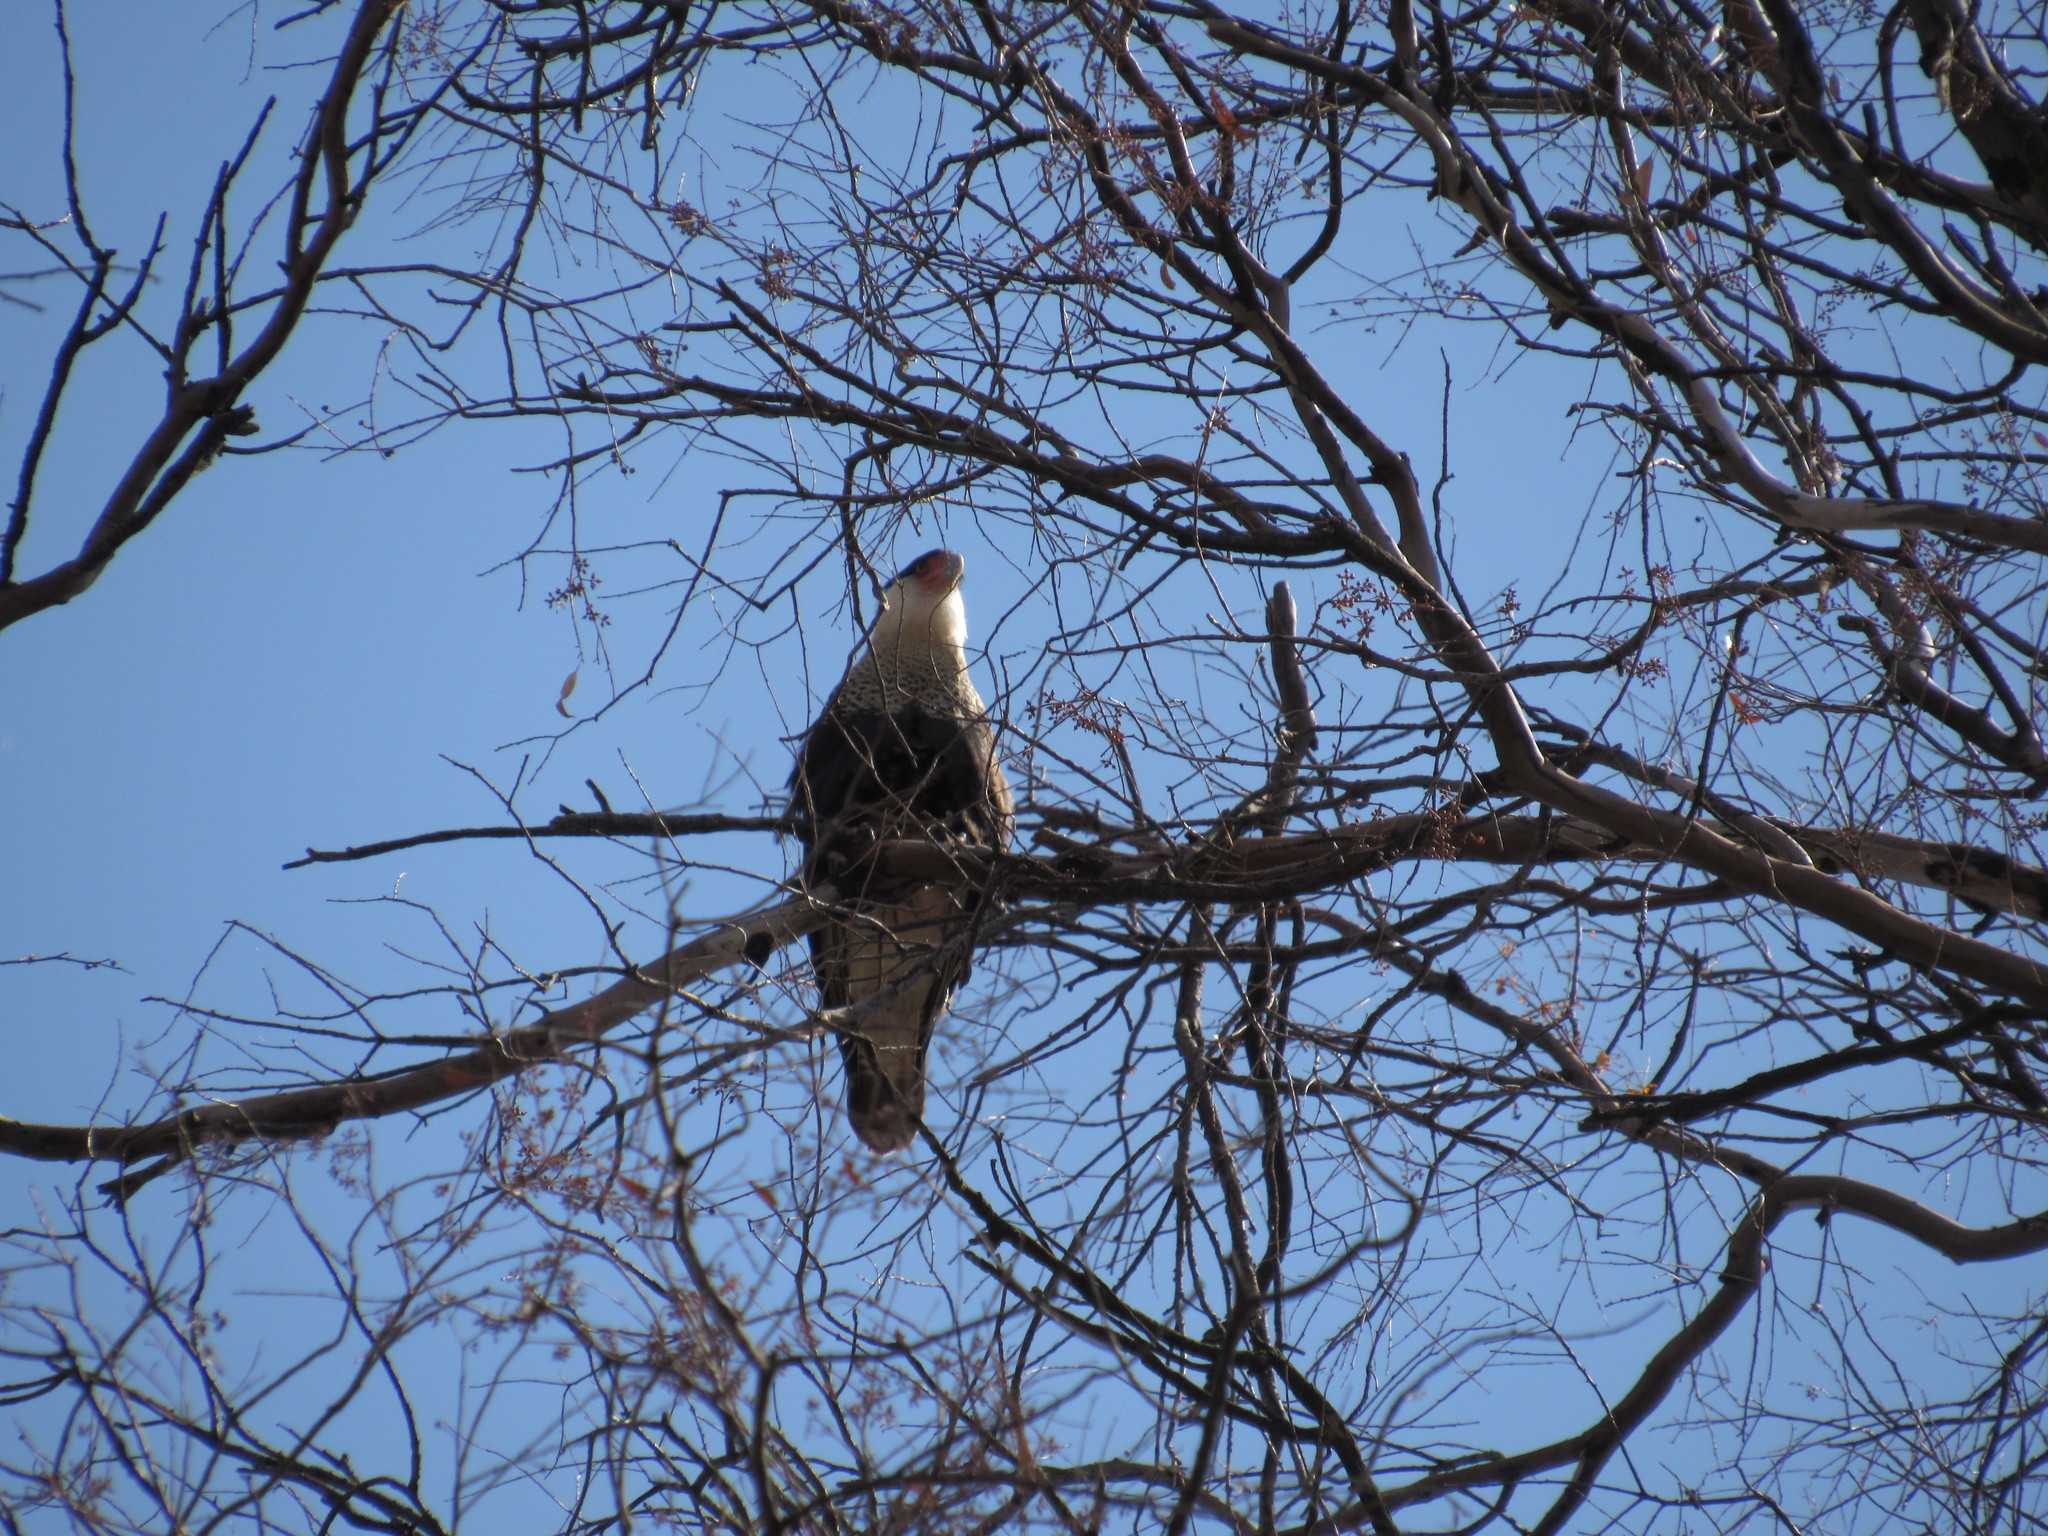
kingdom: Animalia
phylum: Chordata
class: Aves
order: Falconiformes
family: Falconidae
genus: Caracara
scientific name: Caracara plancus
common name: Southern caracara
